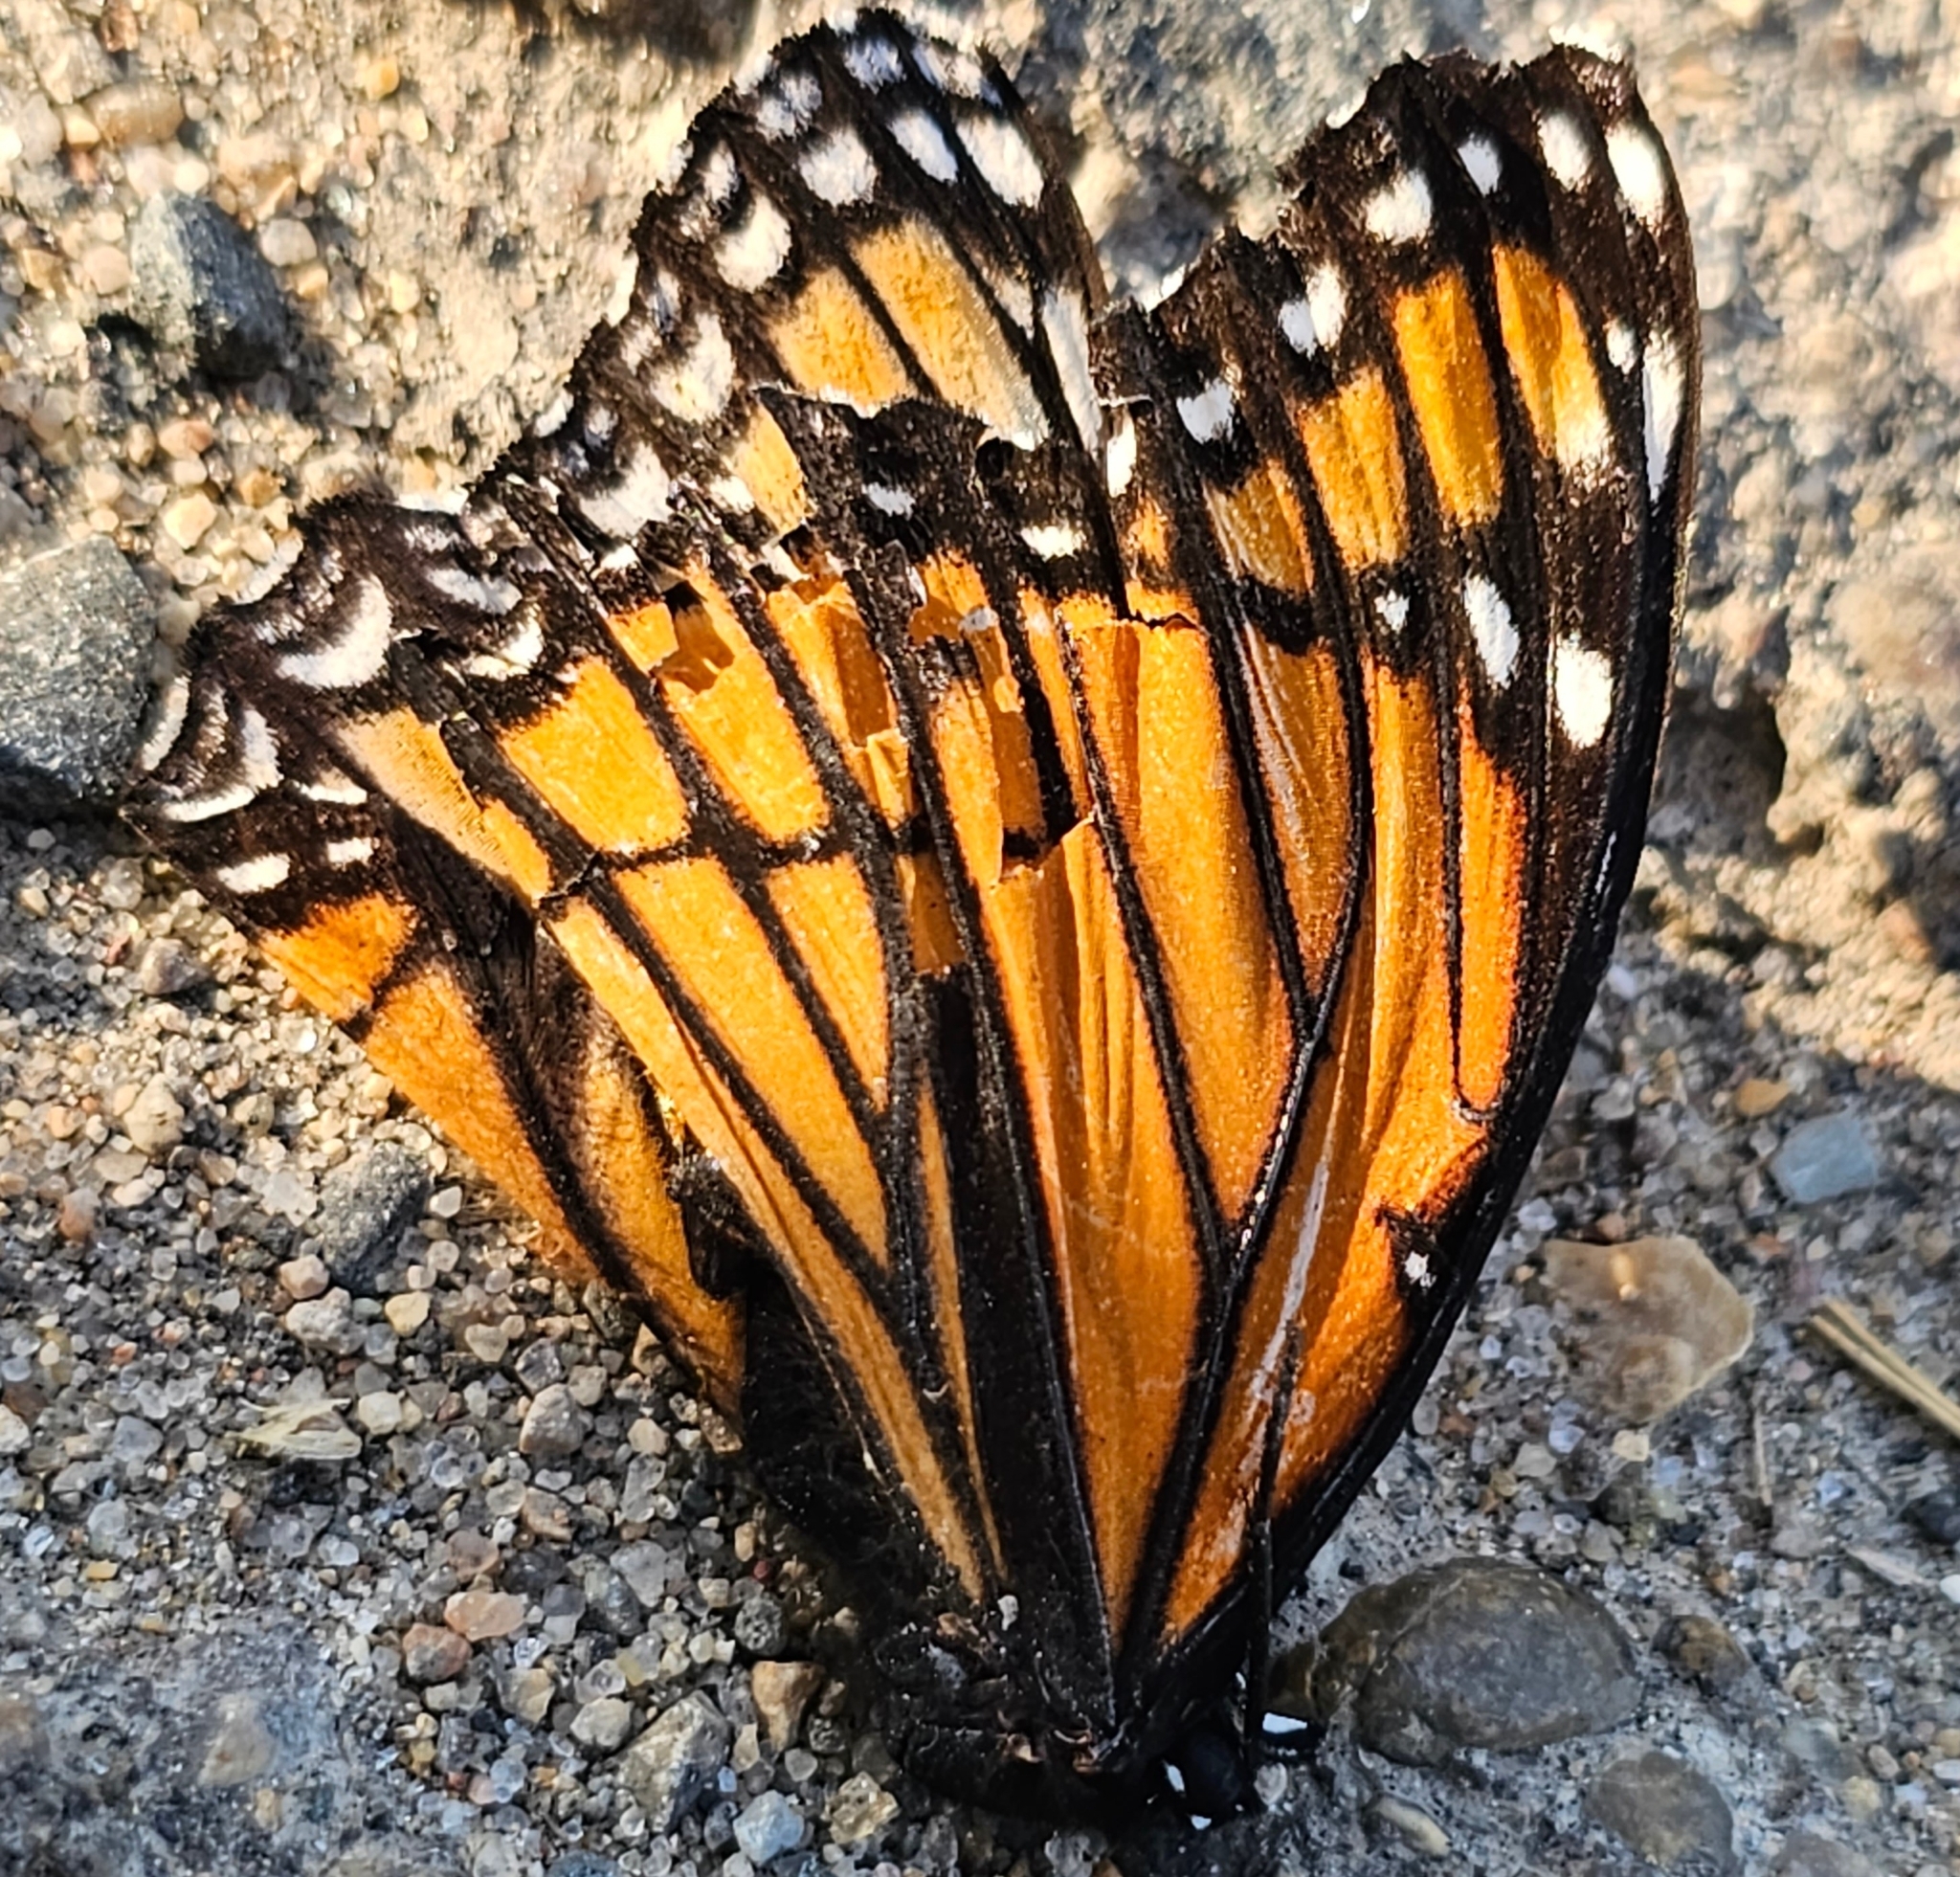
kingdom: Animalia
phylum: Arthropoda
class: Insecta
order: Lepidoptera
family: Nymphalidae
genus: Limenitis
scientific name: Limenitis archippus
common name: Viceroy
